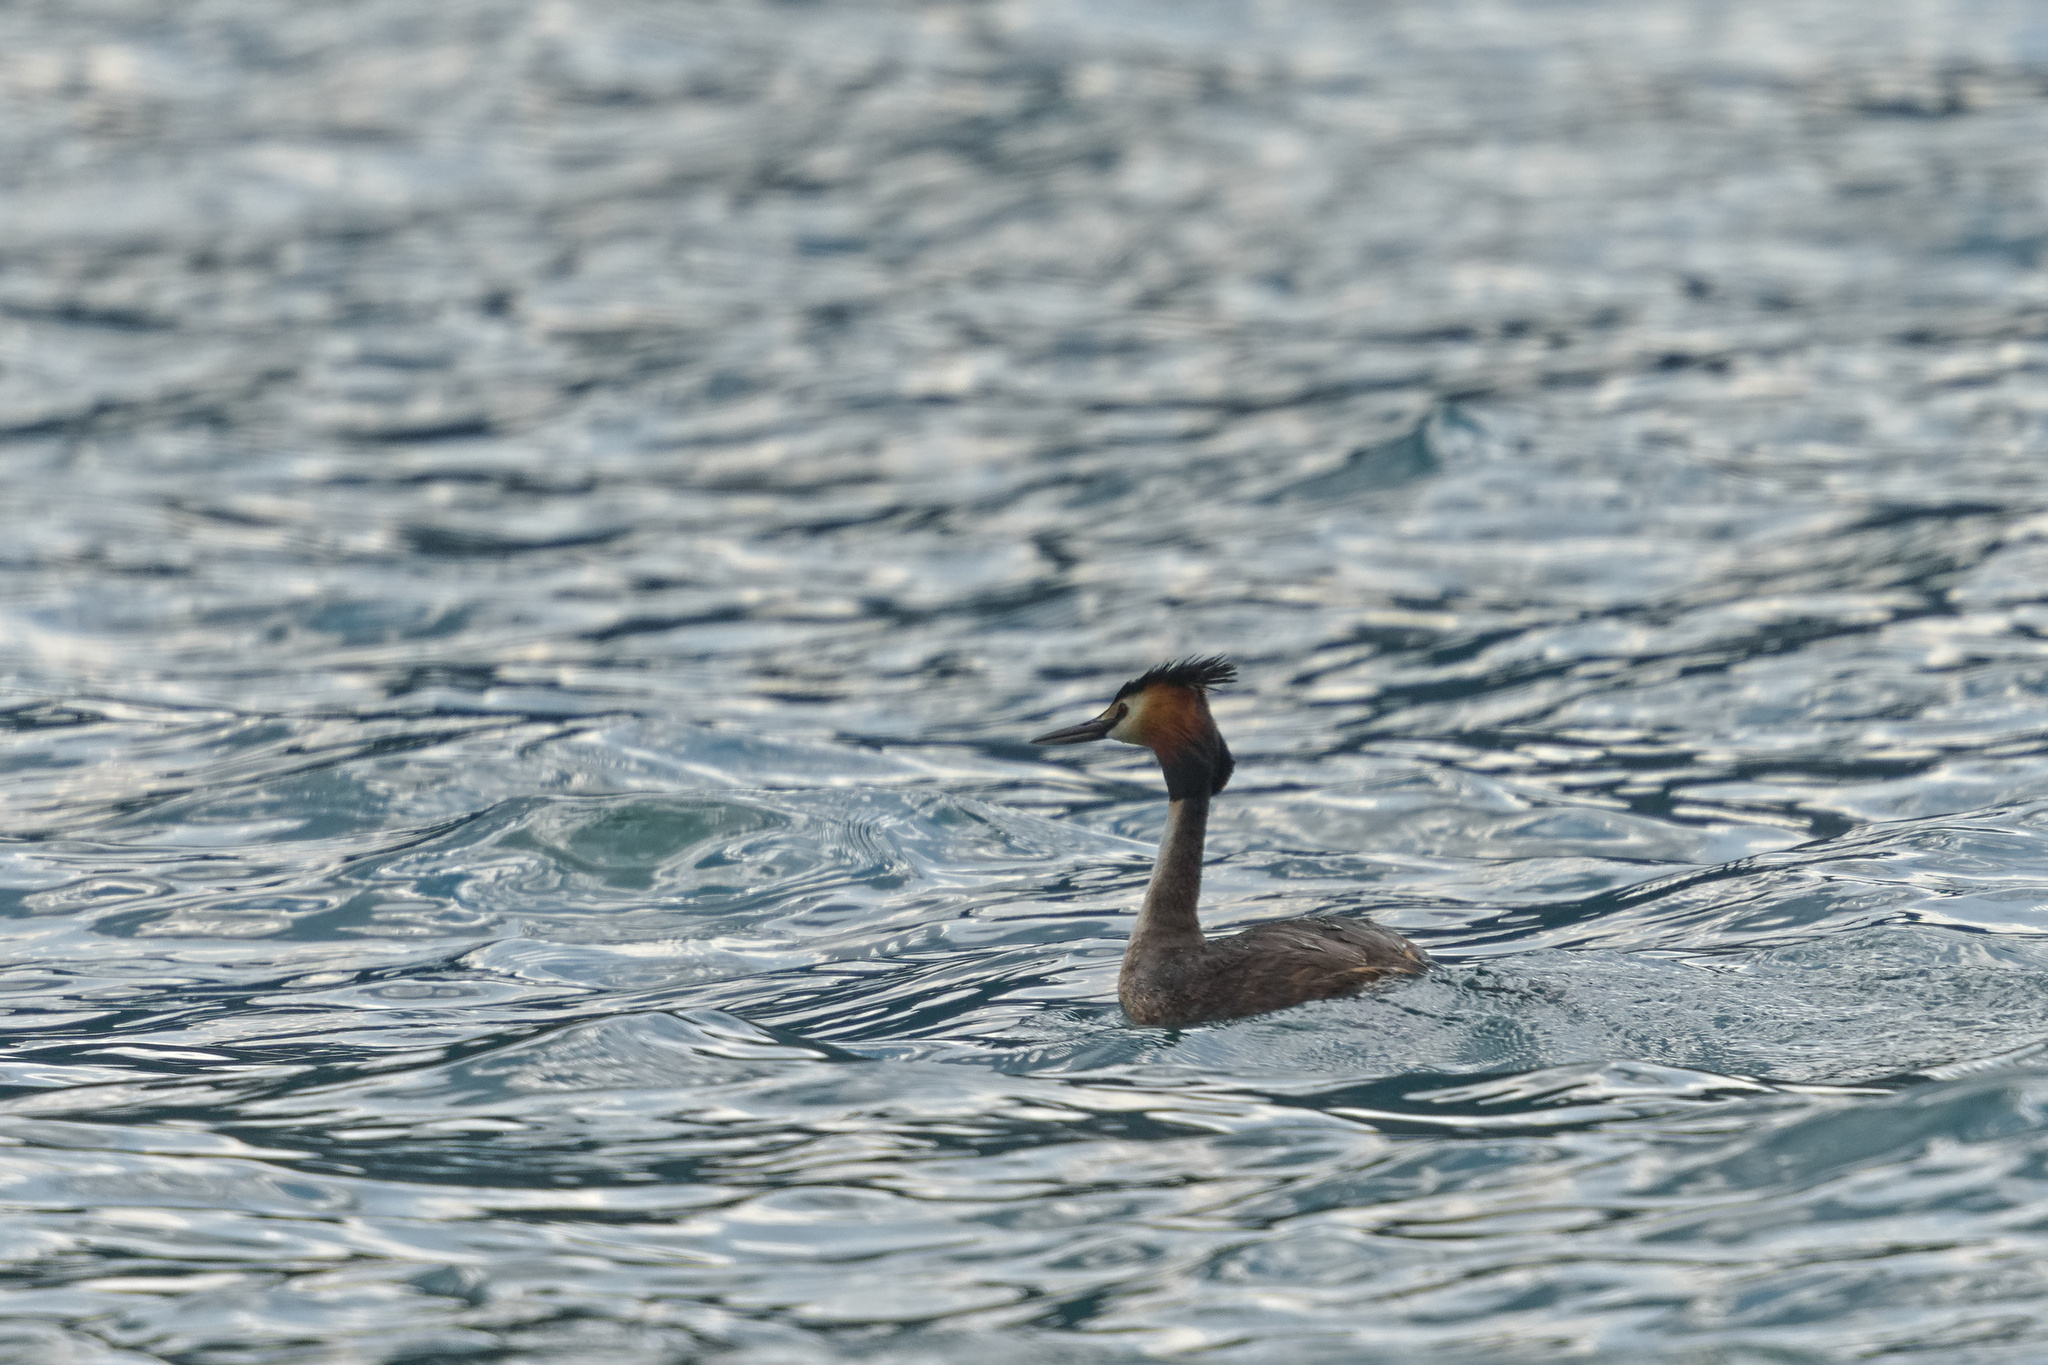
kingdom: Animalia
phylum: Chordata
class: Aves
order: Podicipediformes
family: Podicipedidae
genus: Podiceps
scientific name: Podiceps cristatus
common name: Great crested grebe
